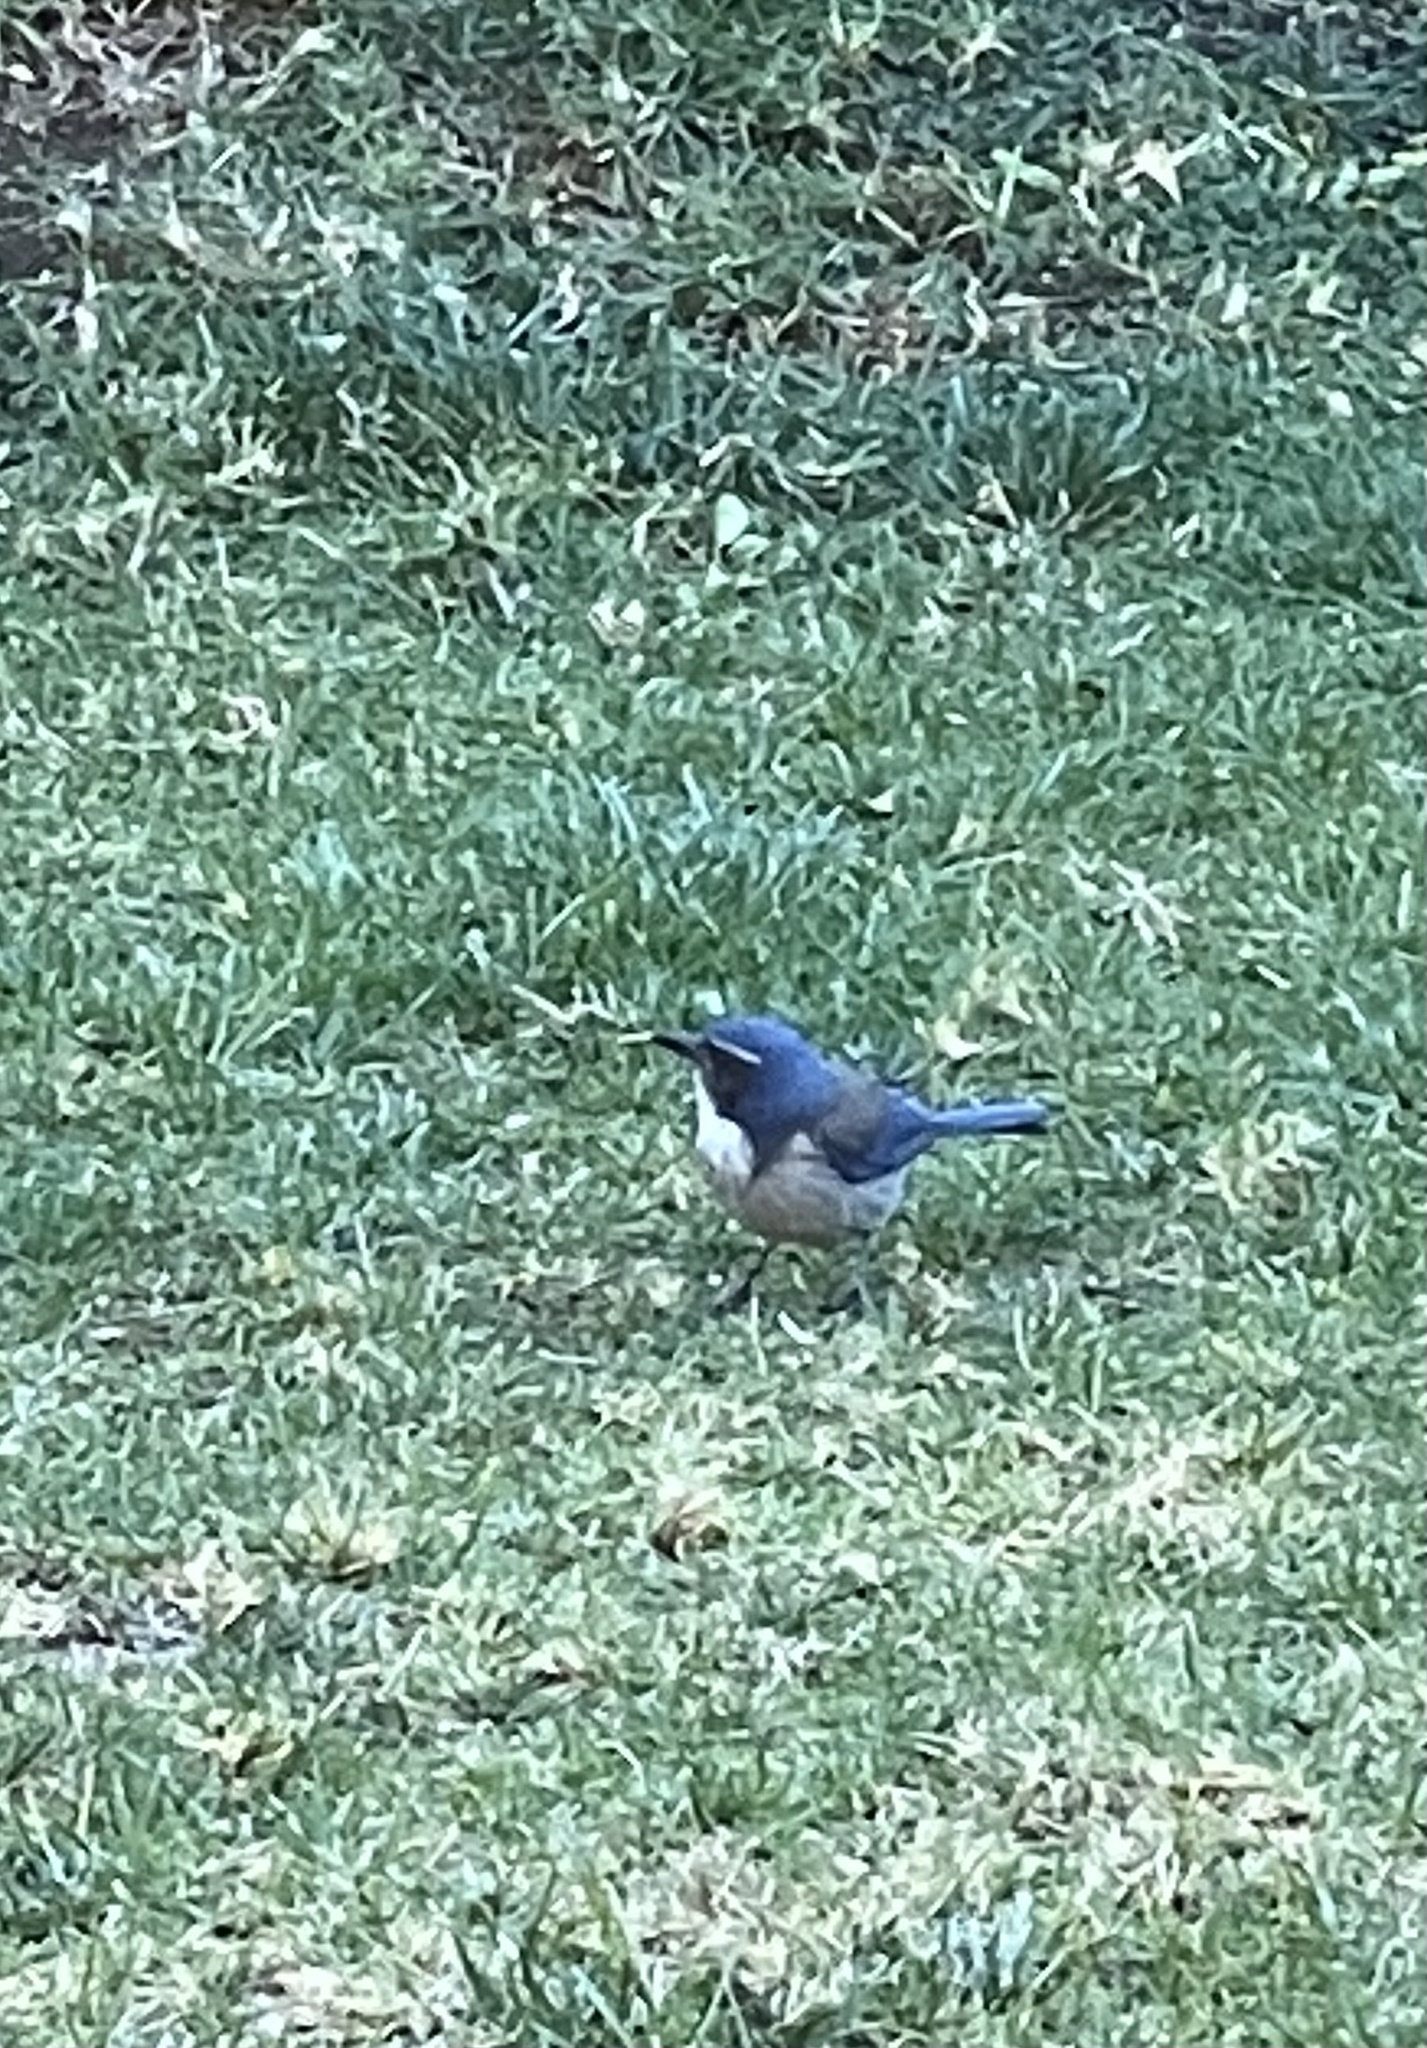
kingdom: Animalia
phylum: Chordata
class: Aves
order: Passeriformes
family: Corvidae
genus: Aphelocoma
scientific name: Aphelocoma californica
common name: California scrub-jay
